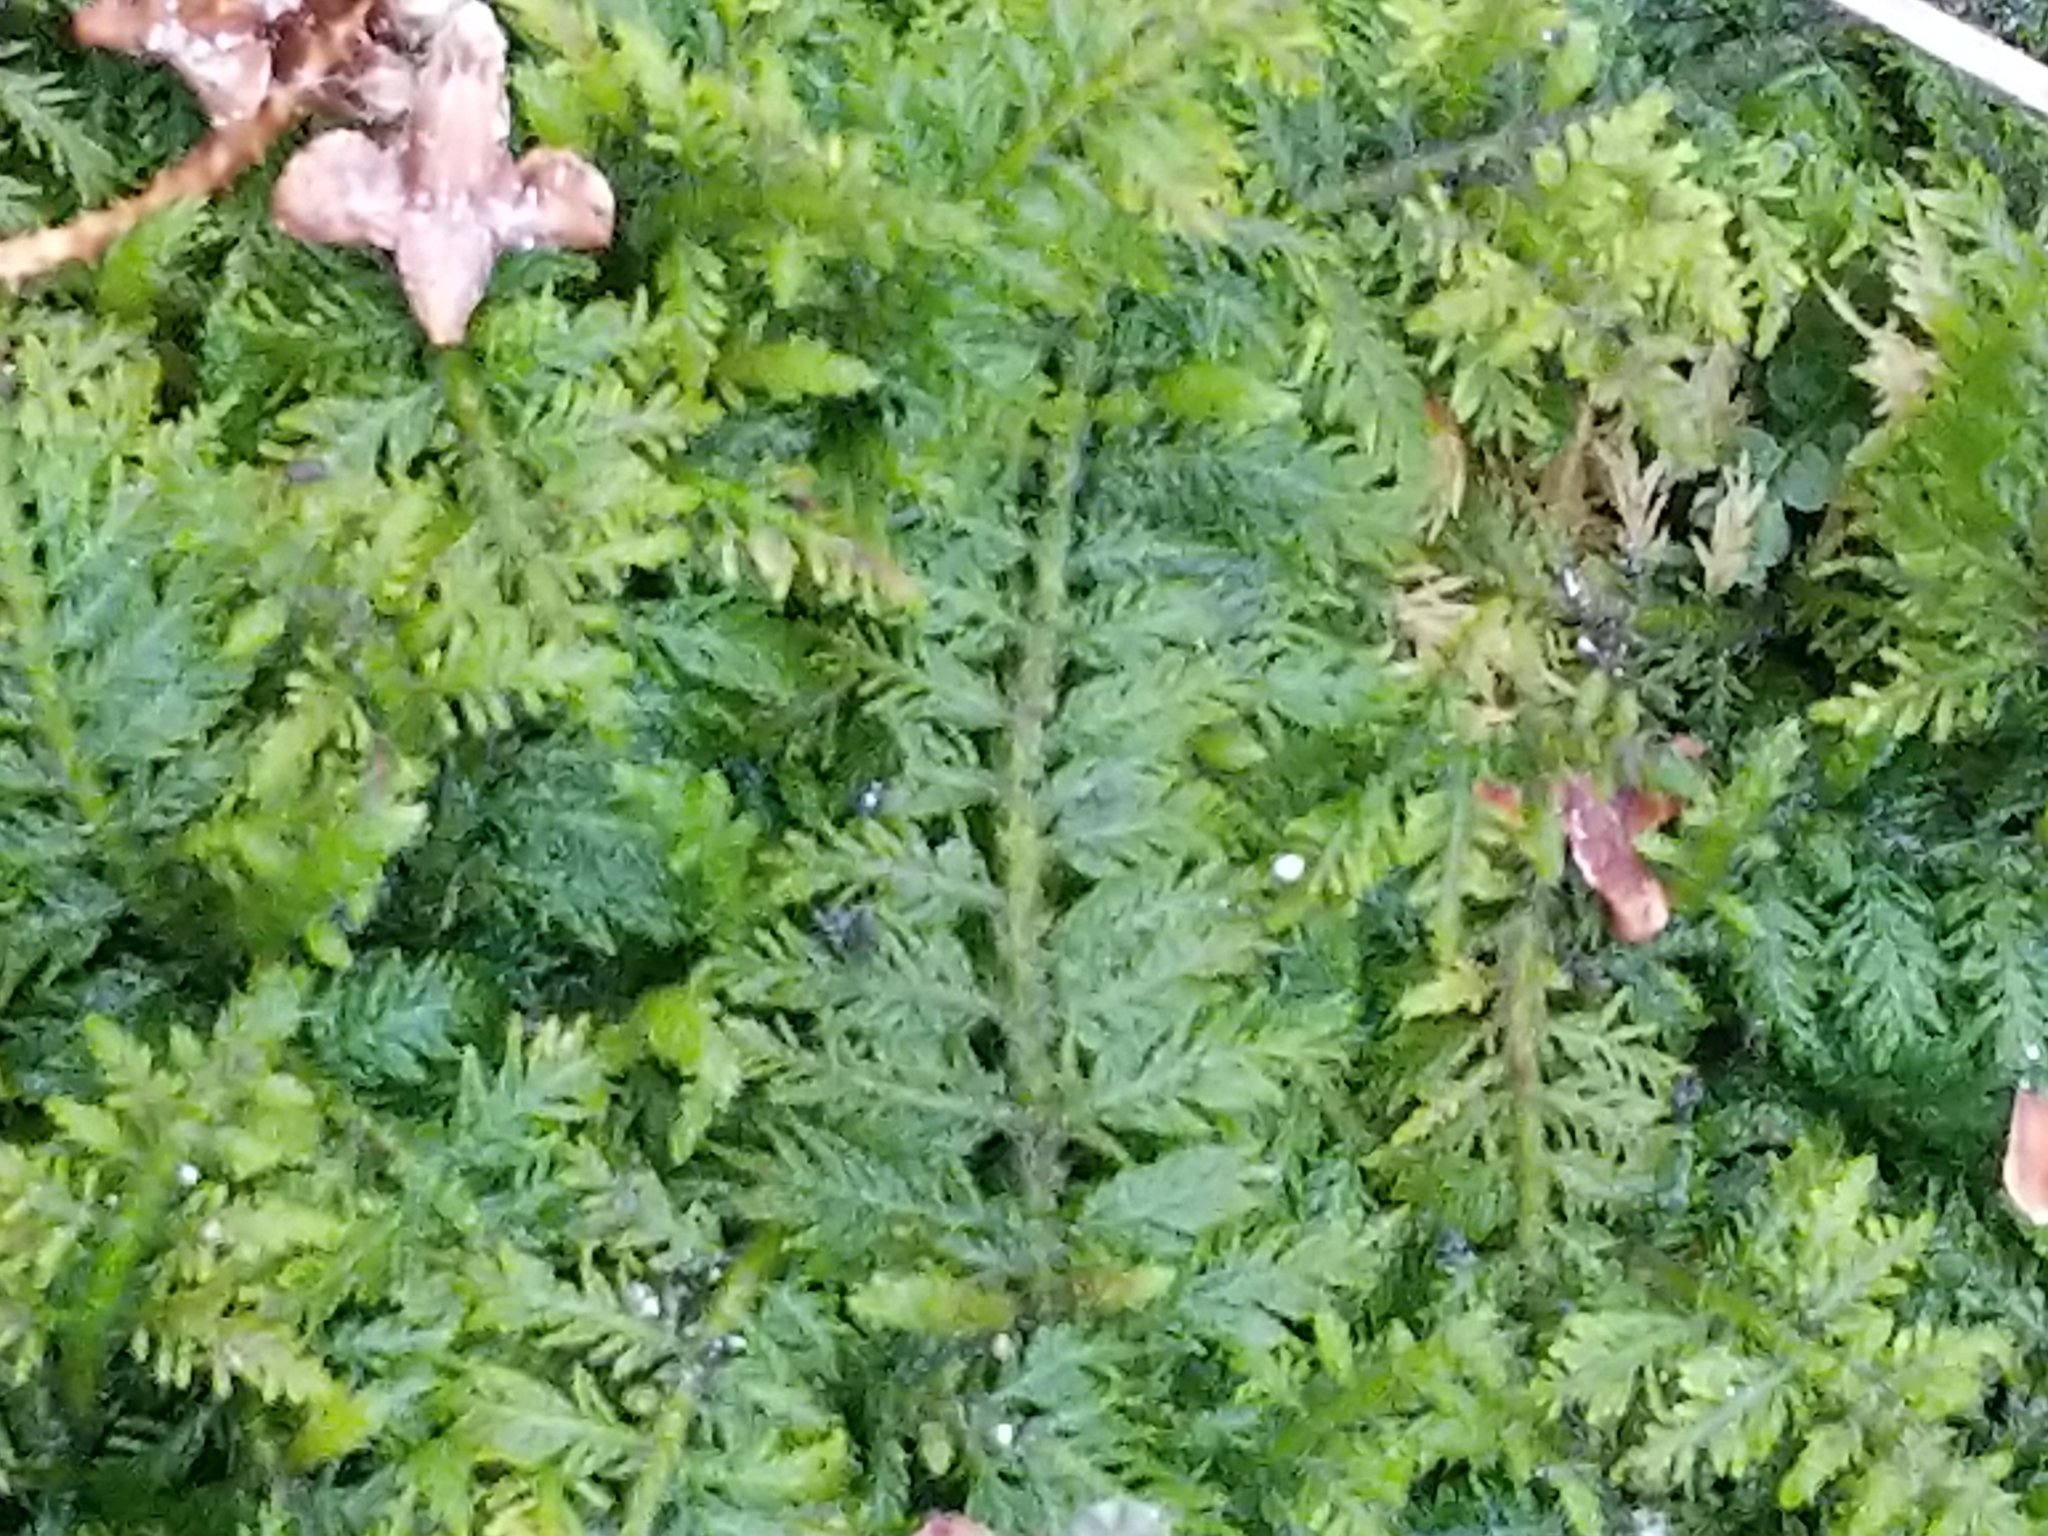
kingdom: Plantae
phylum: Bryophyta
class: Bryopsida
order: Hypnales
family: Thuidiaceae
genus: Thuidium
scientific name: Thuidium delicatulum
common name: Delicate fern moss
